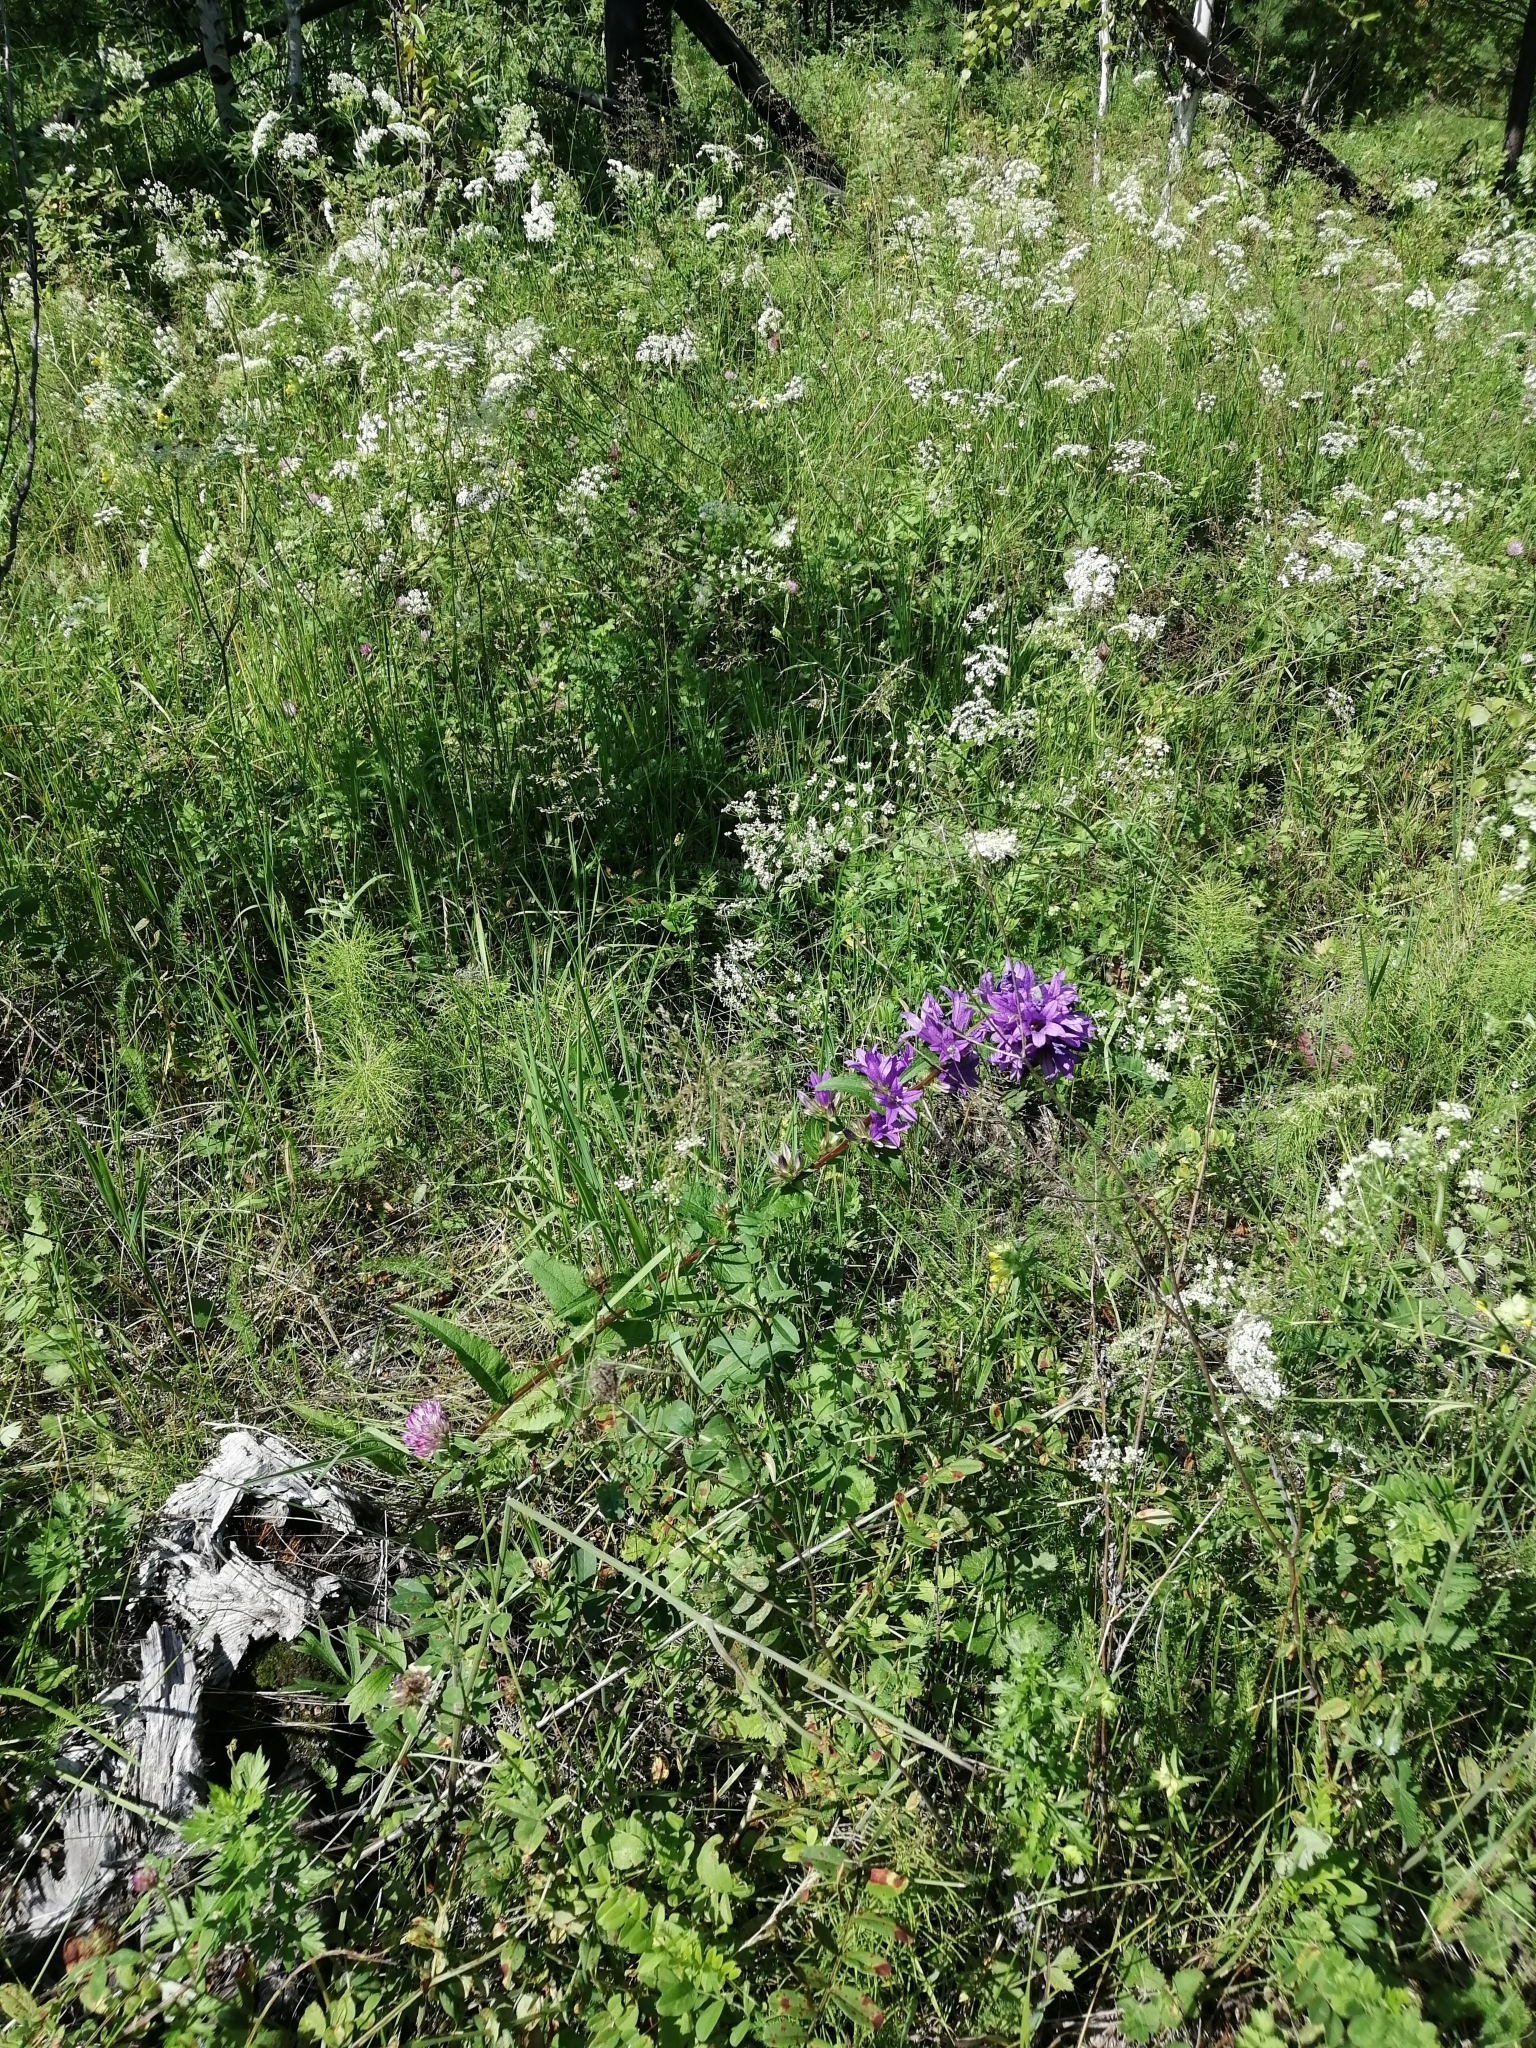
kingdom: Plantae
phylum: Tracheophyta
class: Magnoliopsida
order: Asterales
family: Campanulaceae
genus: Campanula
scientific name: Campanula glomerata
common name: Clustered bellflower
